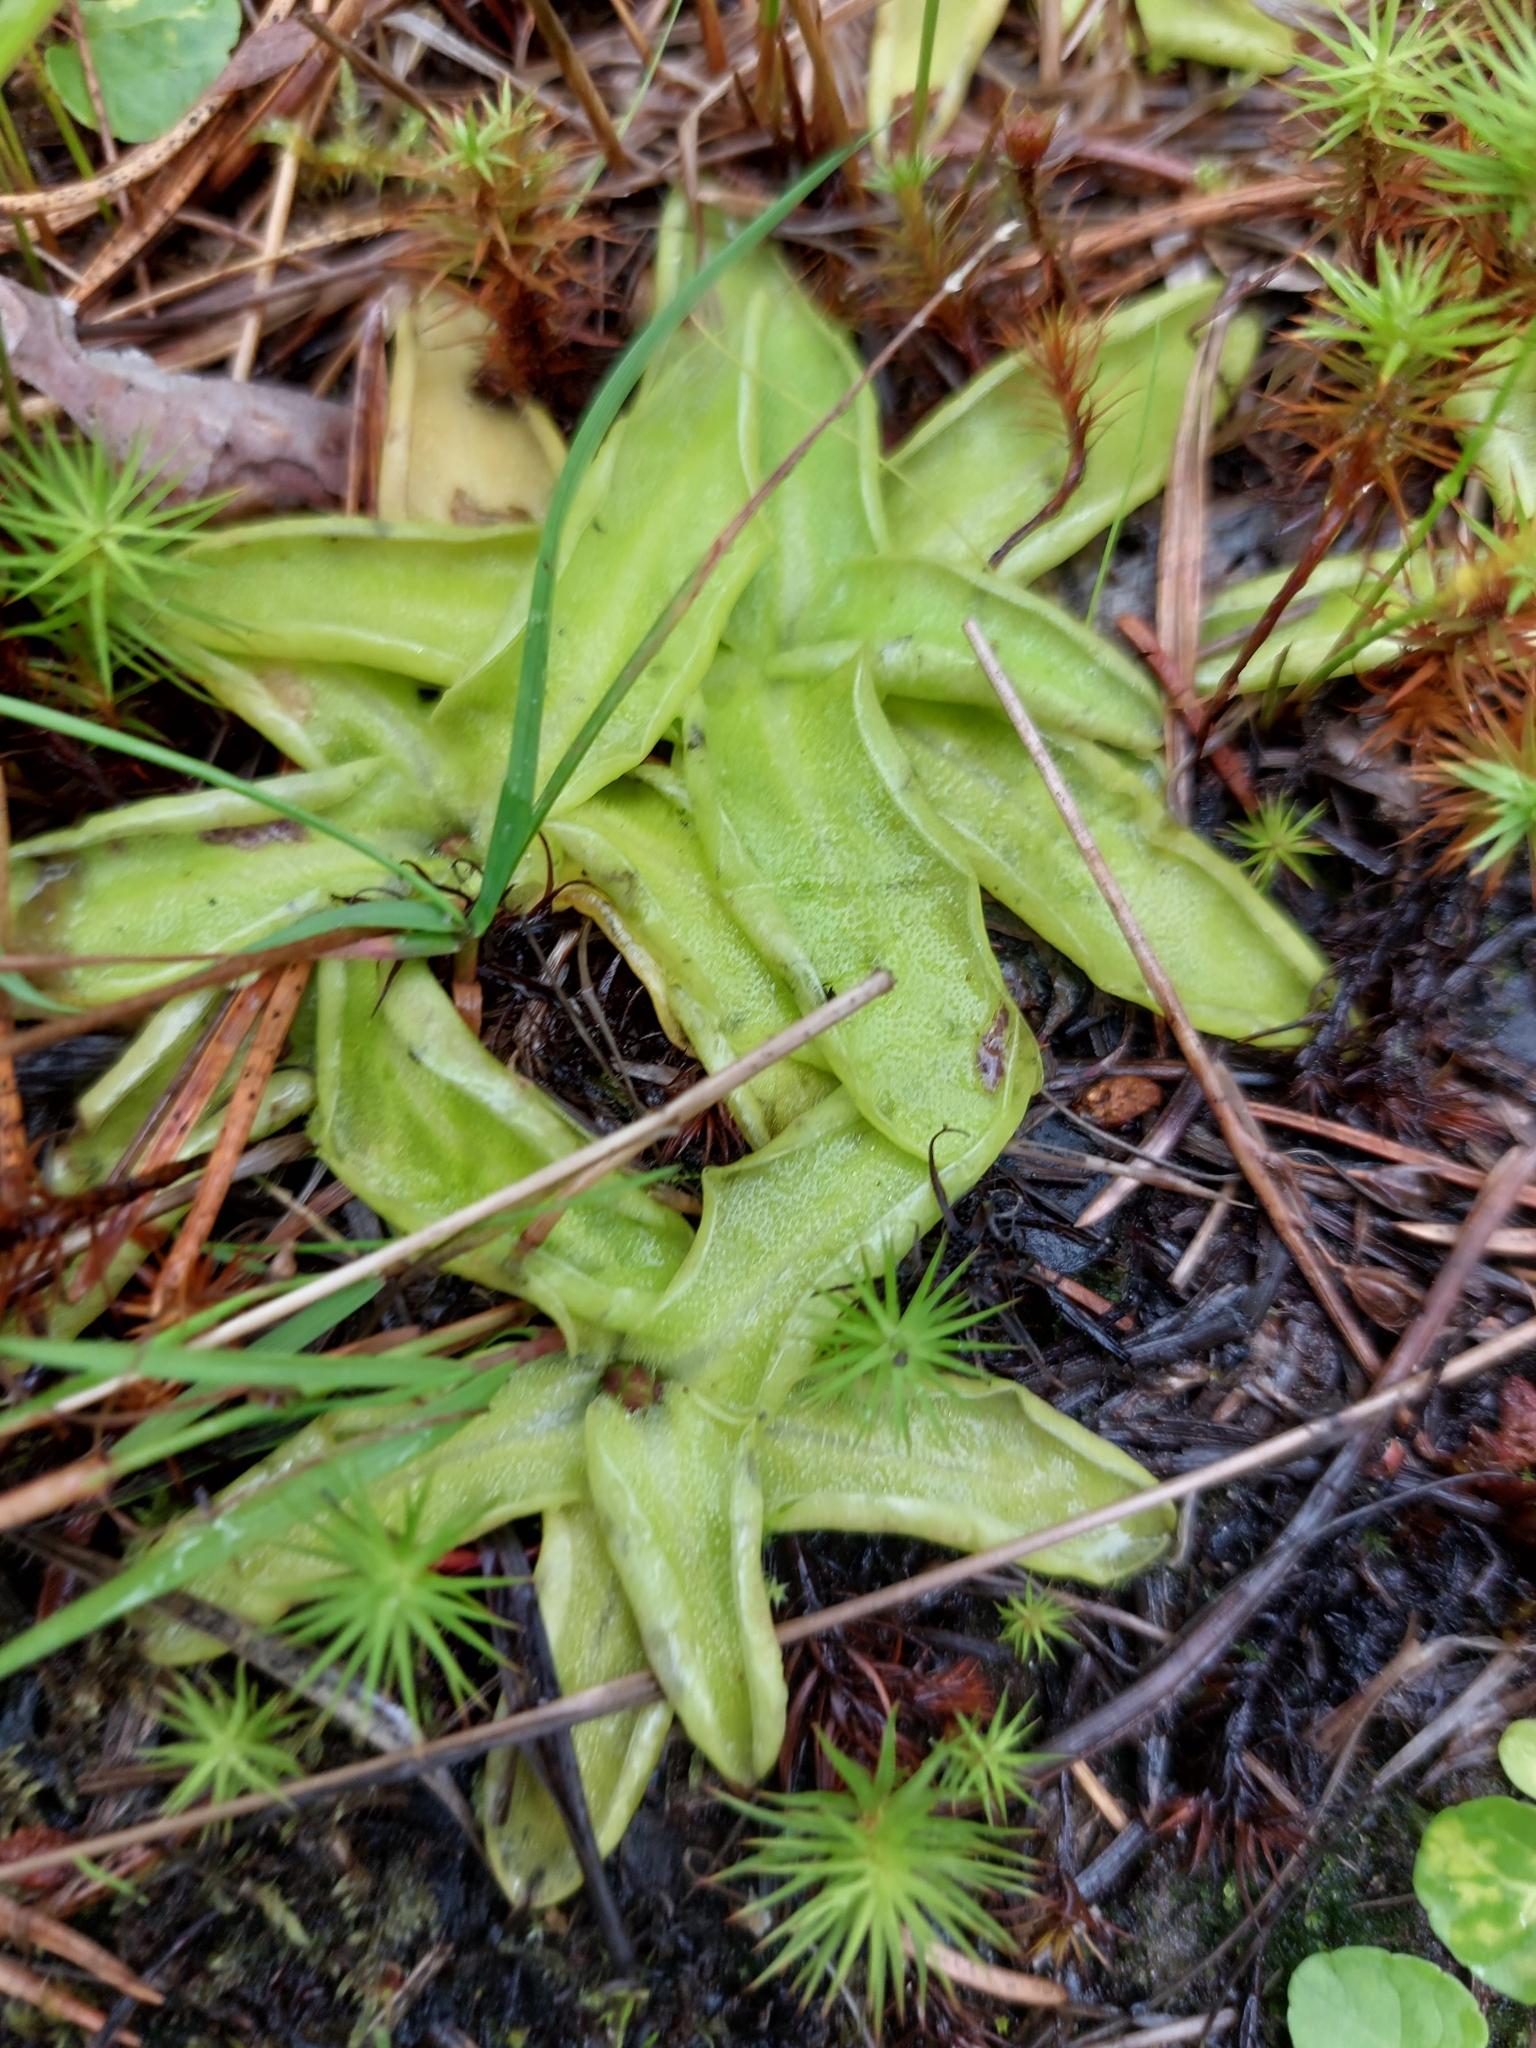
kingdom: Plantae
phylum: Tracheophyta
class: Magnoliopsida
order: Lamiales
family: Lentibulariaceae
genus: Pinguicula
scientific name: Pinguicula vulgaris
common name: Common butterwort
